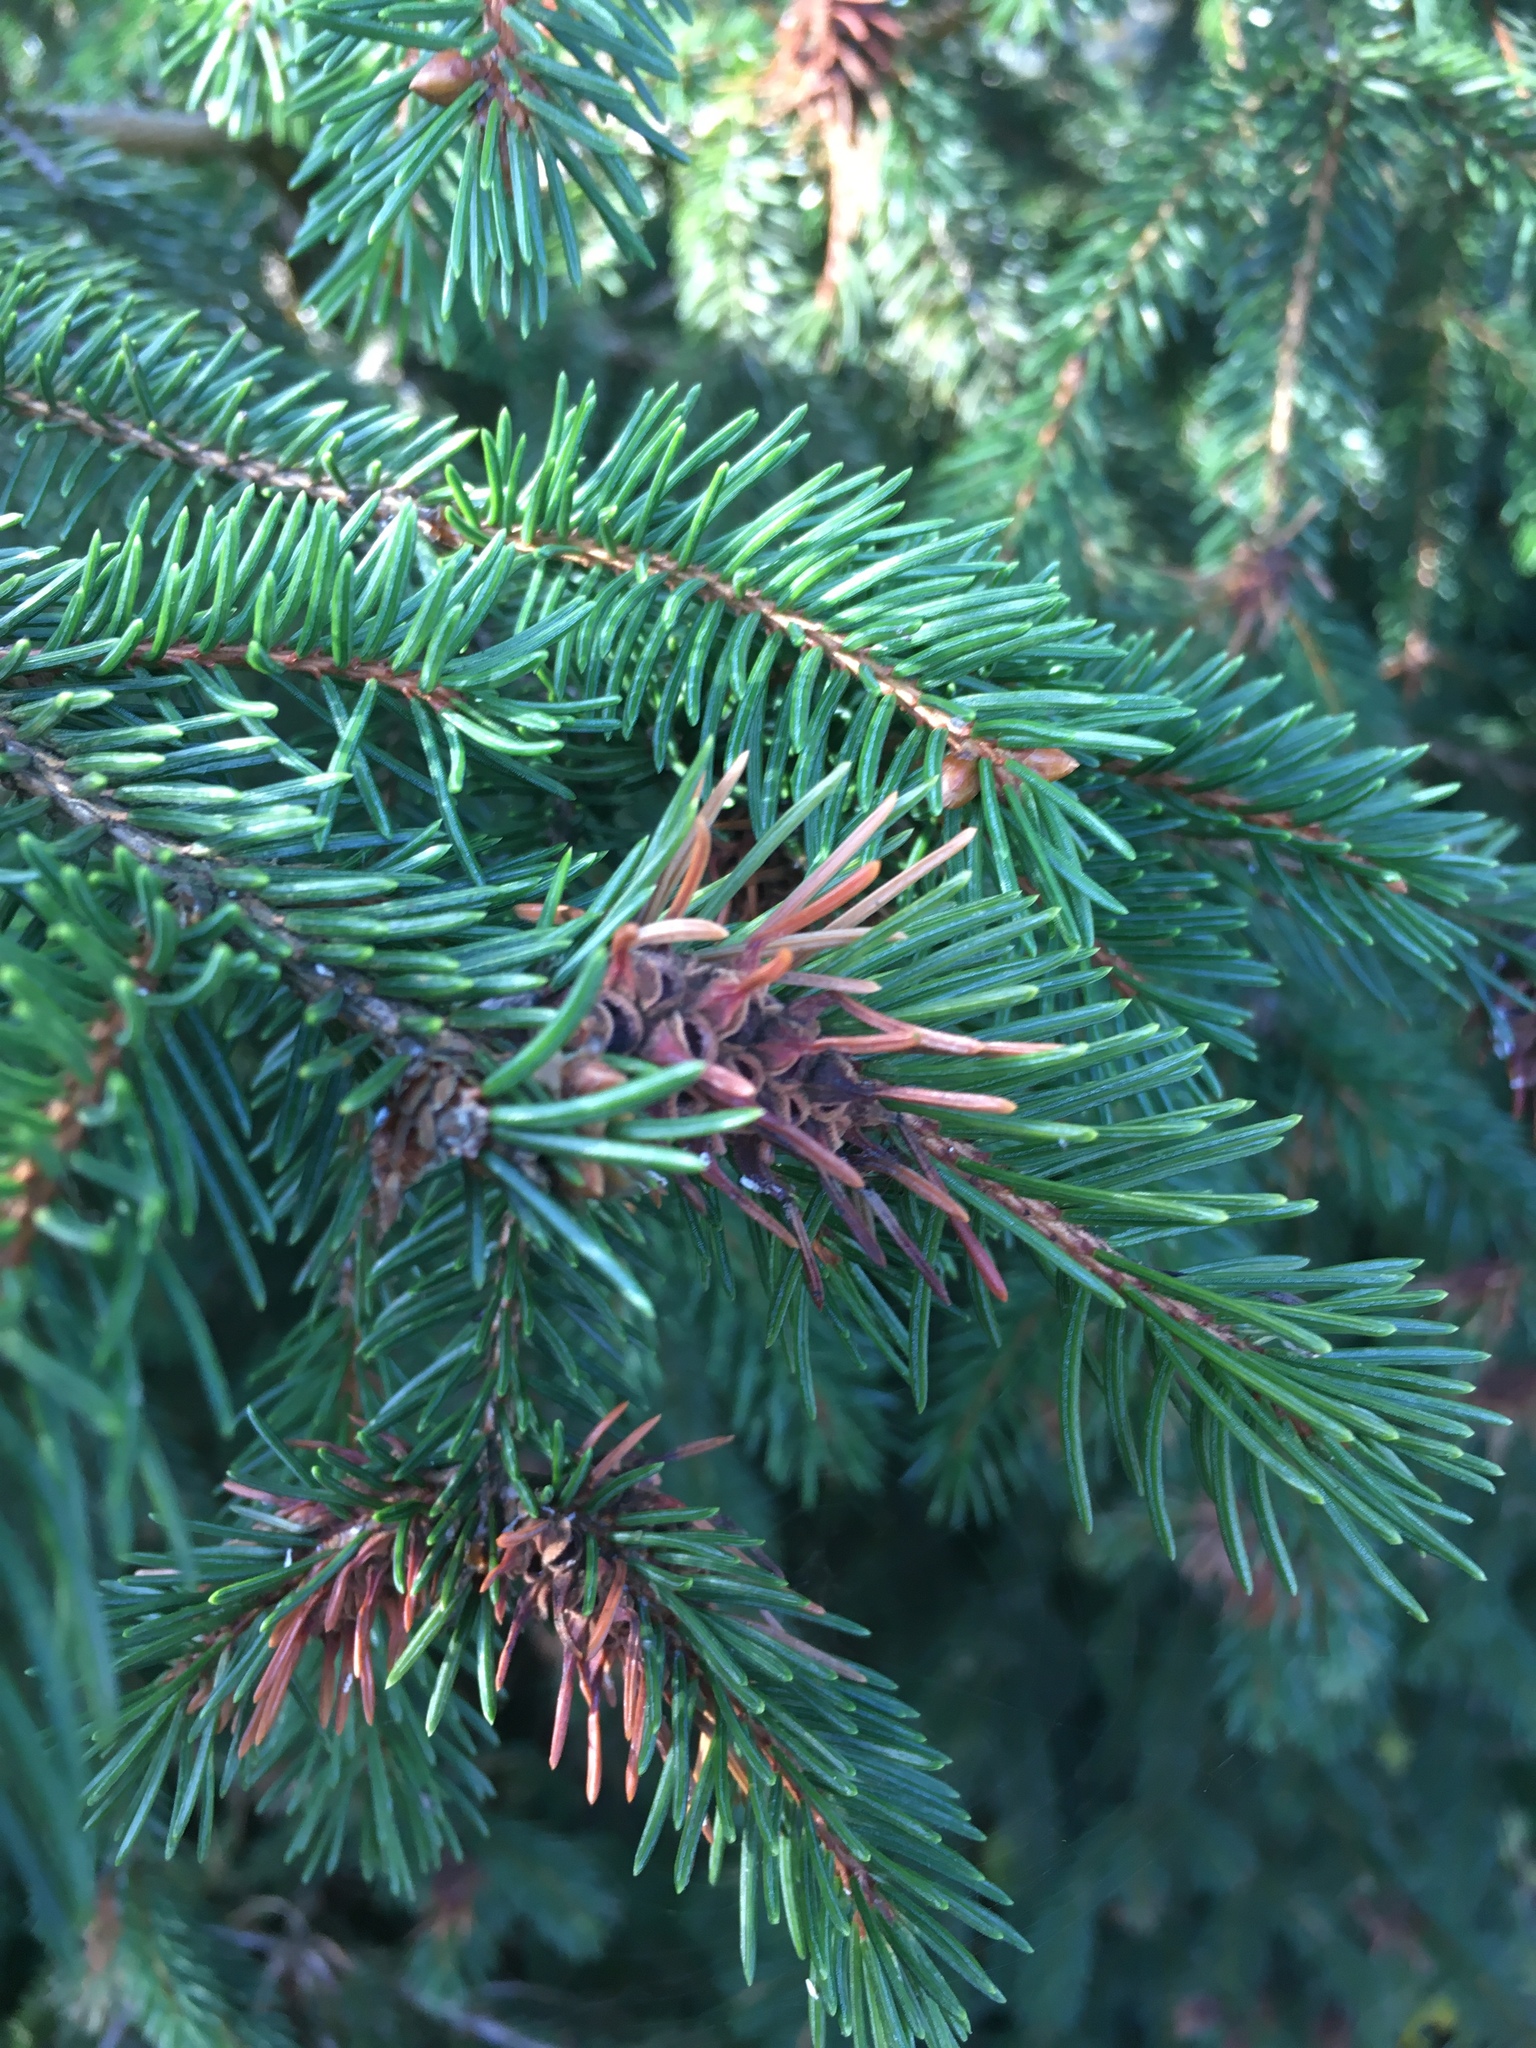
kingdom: Plantae
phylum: Tracheophyta
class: Pinopsida
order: Pinales
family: Pinaceae
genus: Picea
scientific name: Picea abies
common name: Norway spruce
